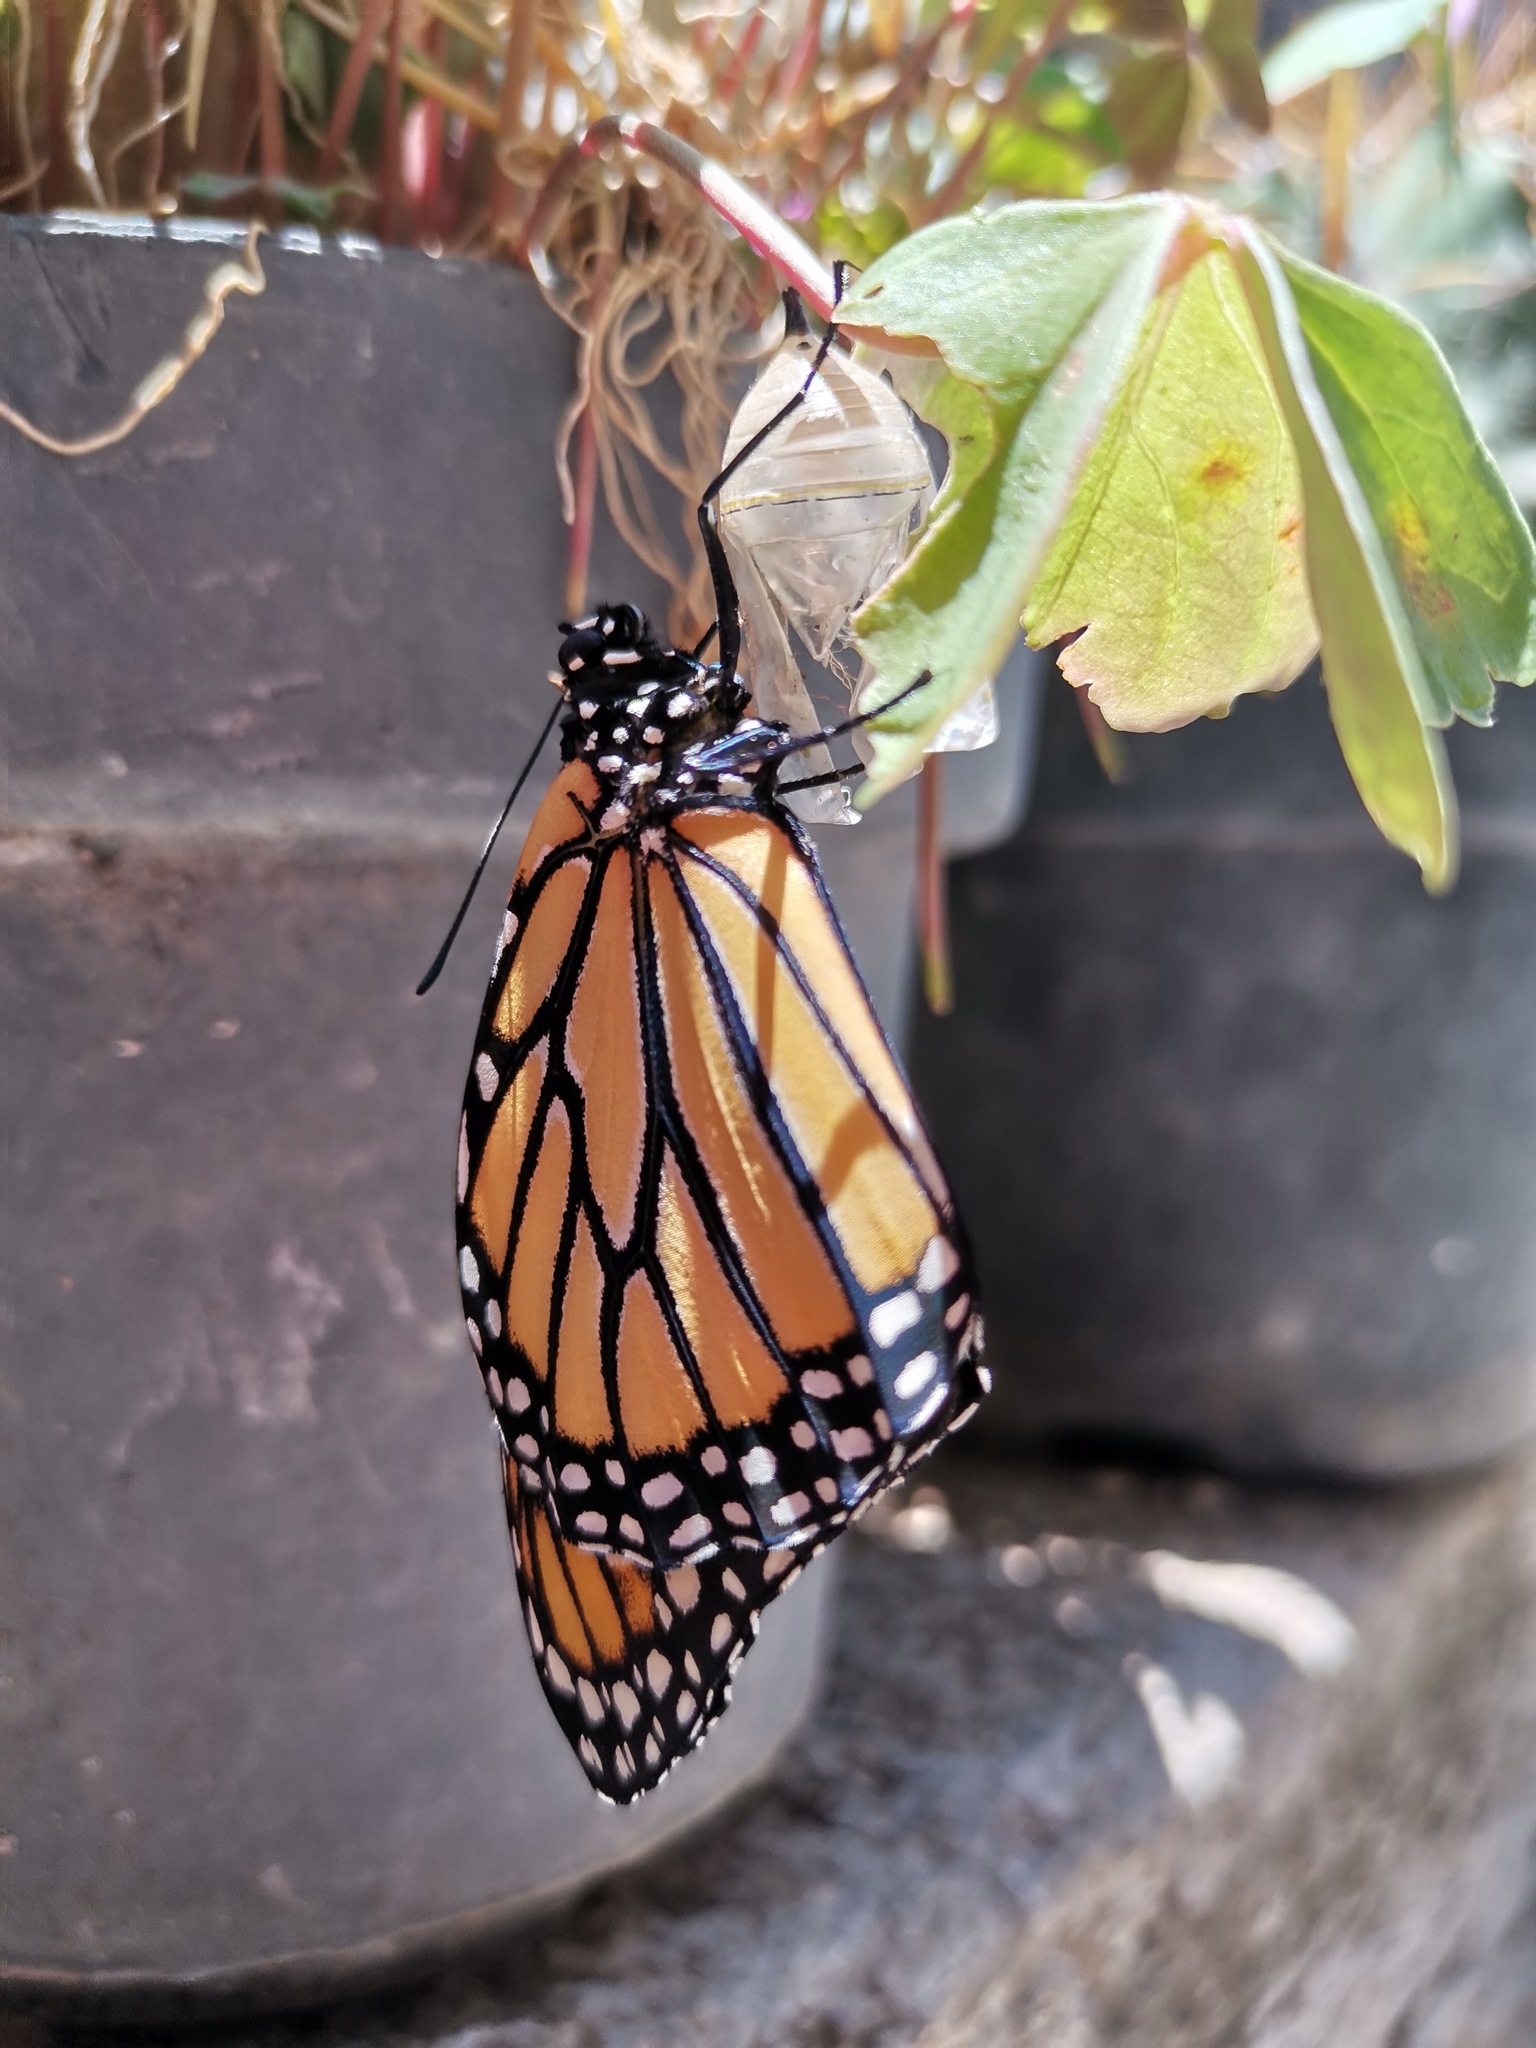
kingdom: Animalia
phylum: Arthropoda
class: Insecta
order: Lepidoptera
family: Nymphalidae
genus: Danaus
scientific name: Danaus plexippus
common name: Monarch
